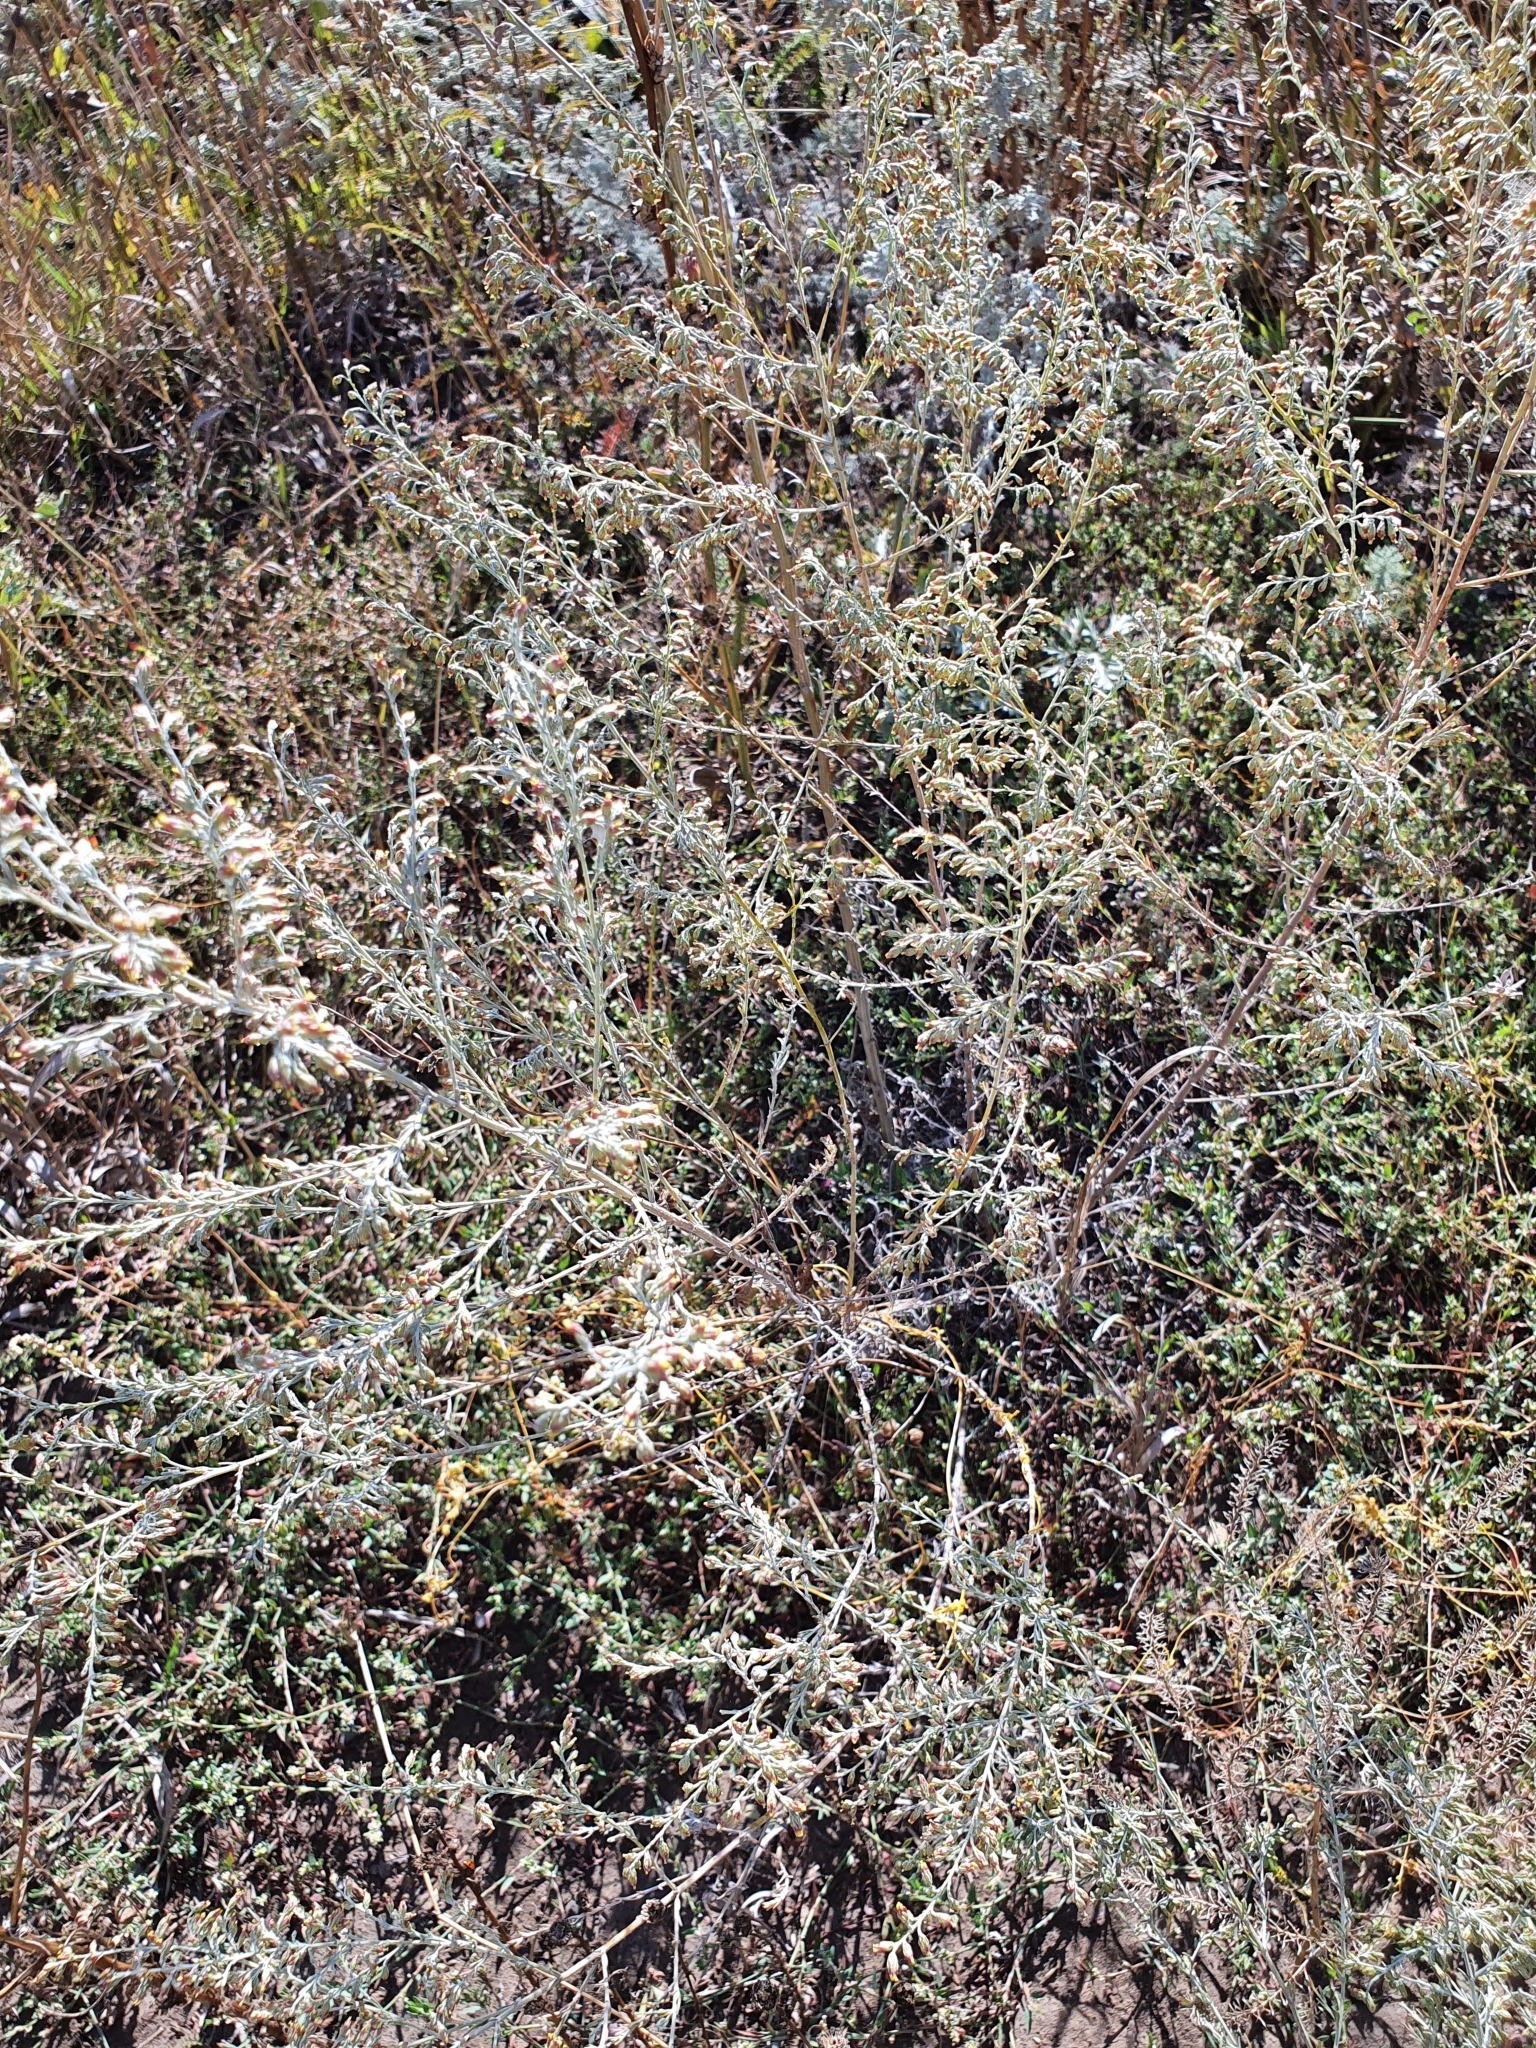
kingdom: Plantae
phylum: Tracheophyta
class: Magnoliopsida
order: Asterales
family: Asteraceae
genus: Artemisia
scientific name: Artemisia santonicum
